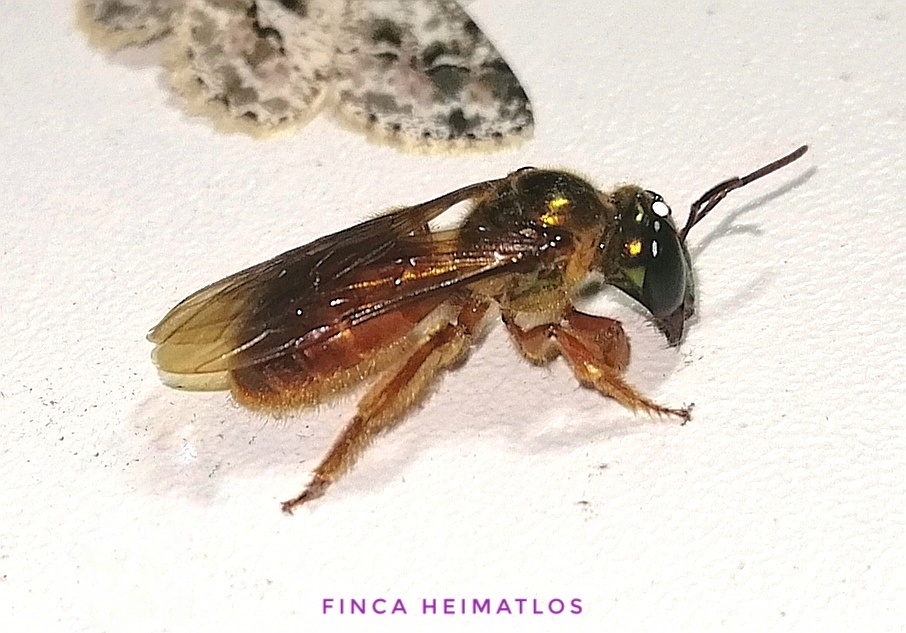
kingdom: Animalia
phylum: Arthropoda
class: Insecta
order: Hymenoptera
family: Halictidae
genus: Megalopta
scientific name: Megalopta
